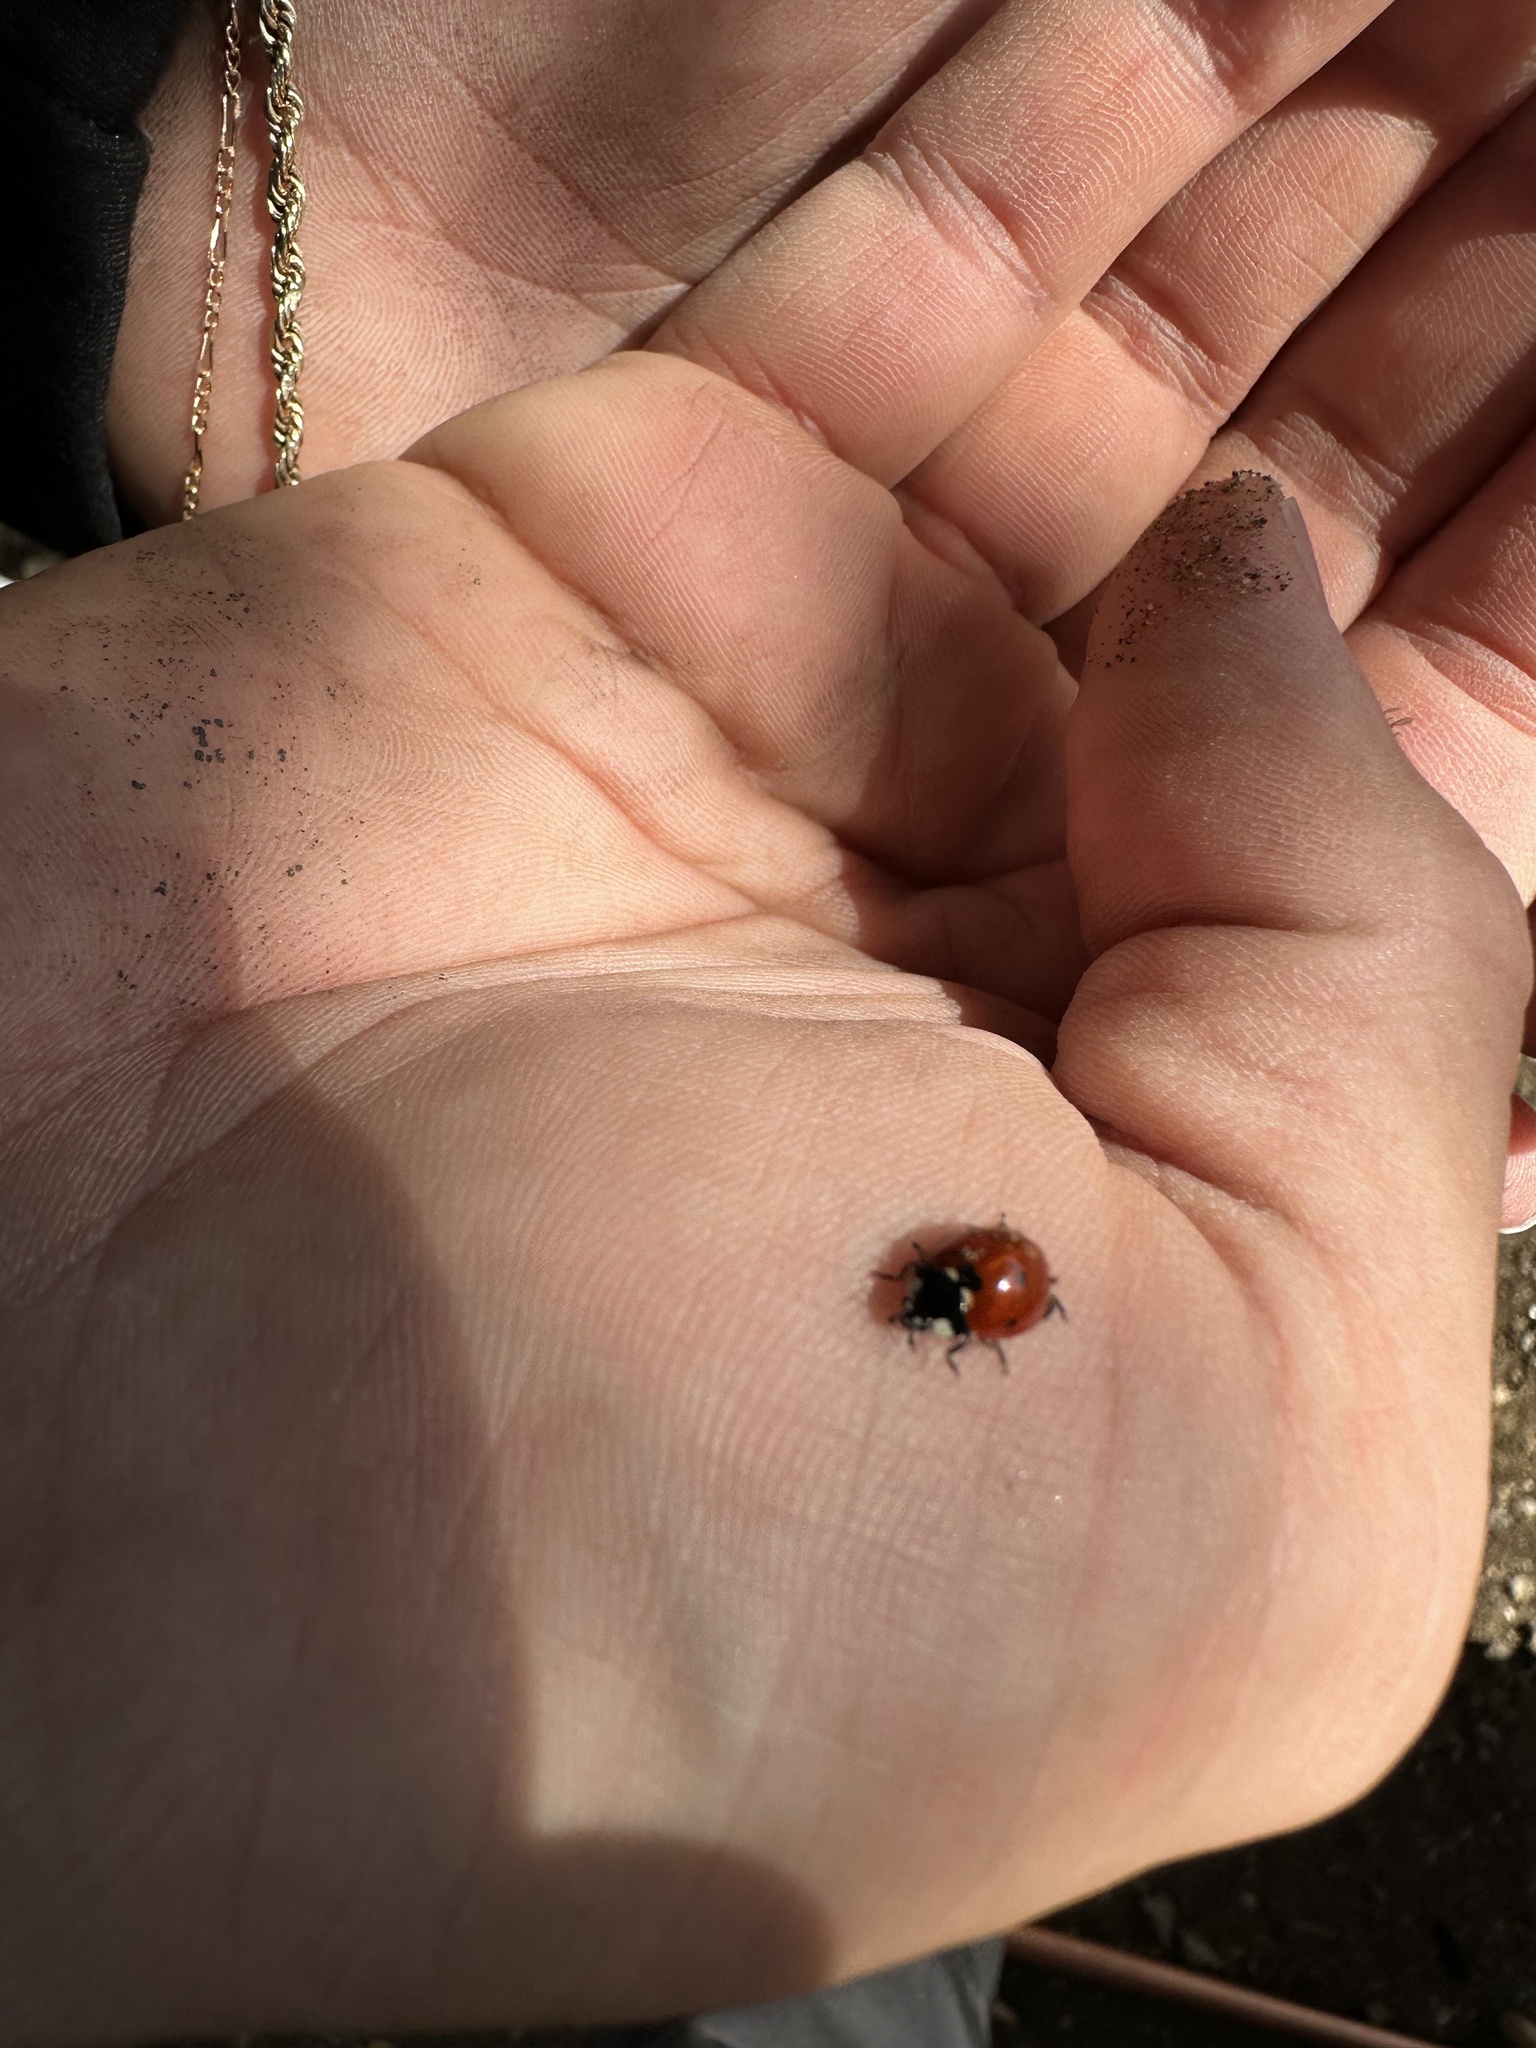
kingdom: Animalia
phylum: Arthropoda
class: Insecta
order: Coleoptera
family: Coccinellidae
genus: Coccinella
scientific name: Coccinella septempunctata
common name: Sevenspotted lady beetle
